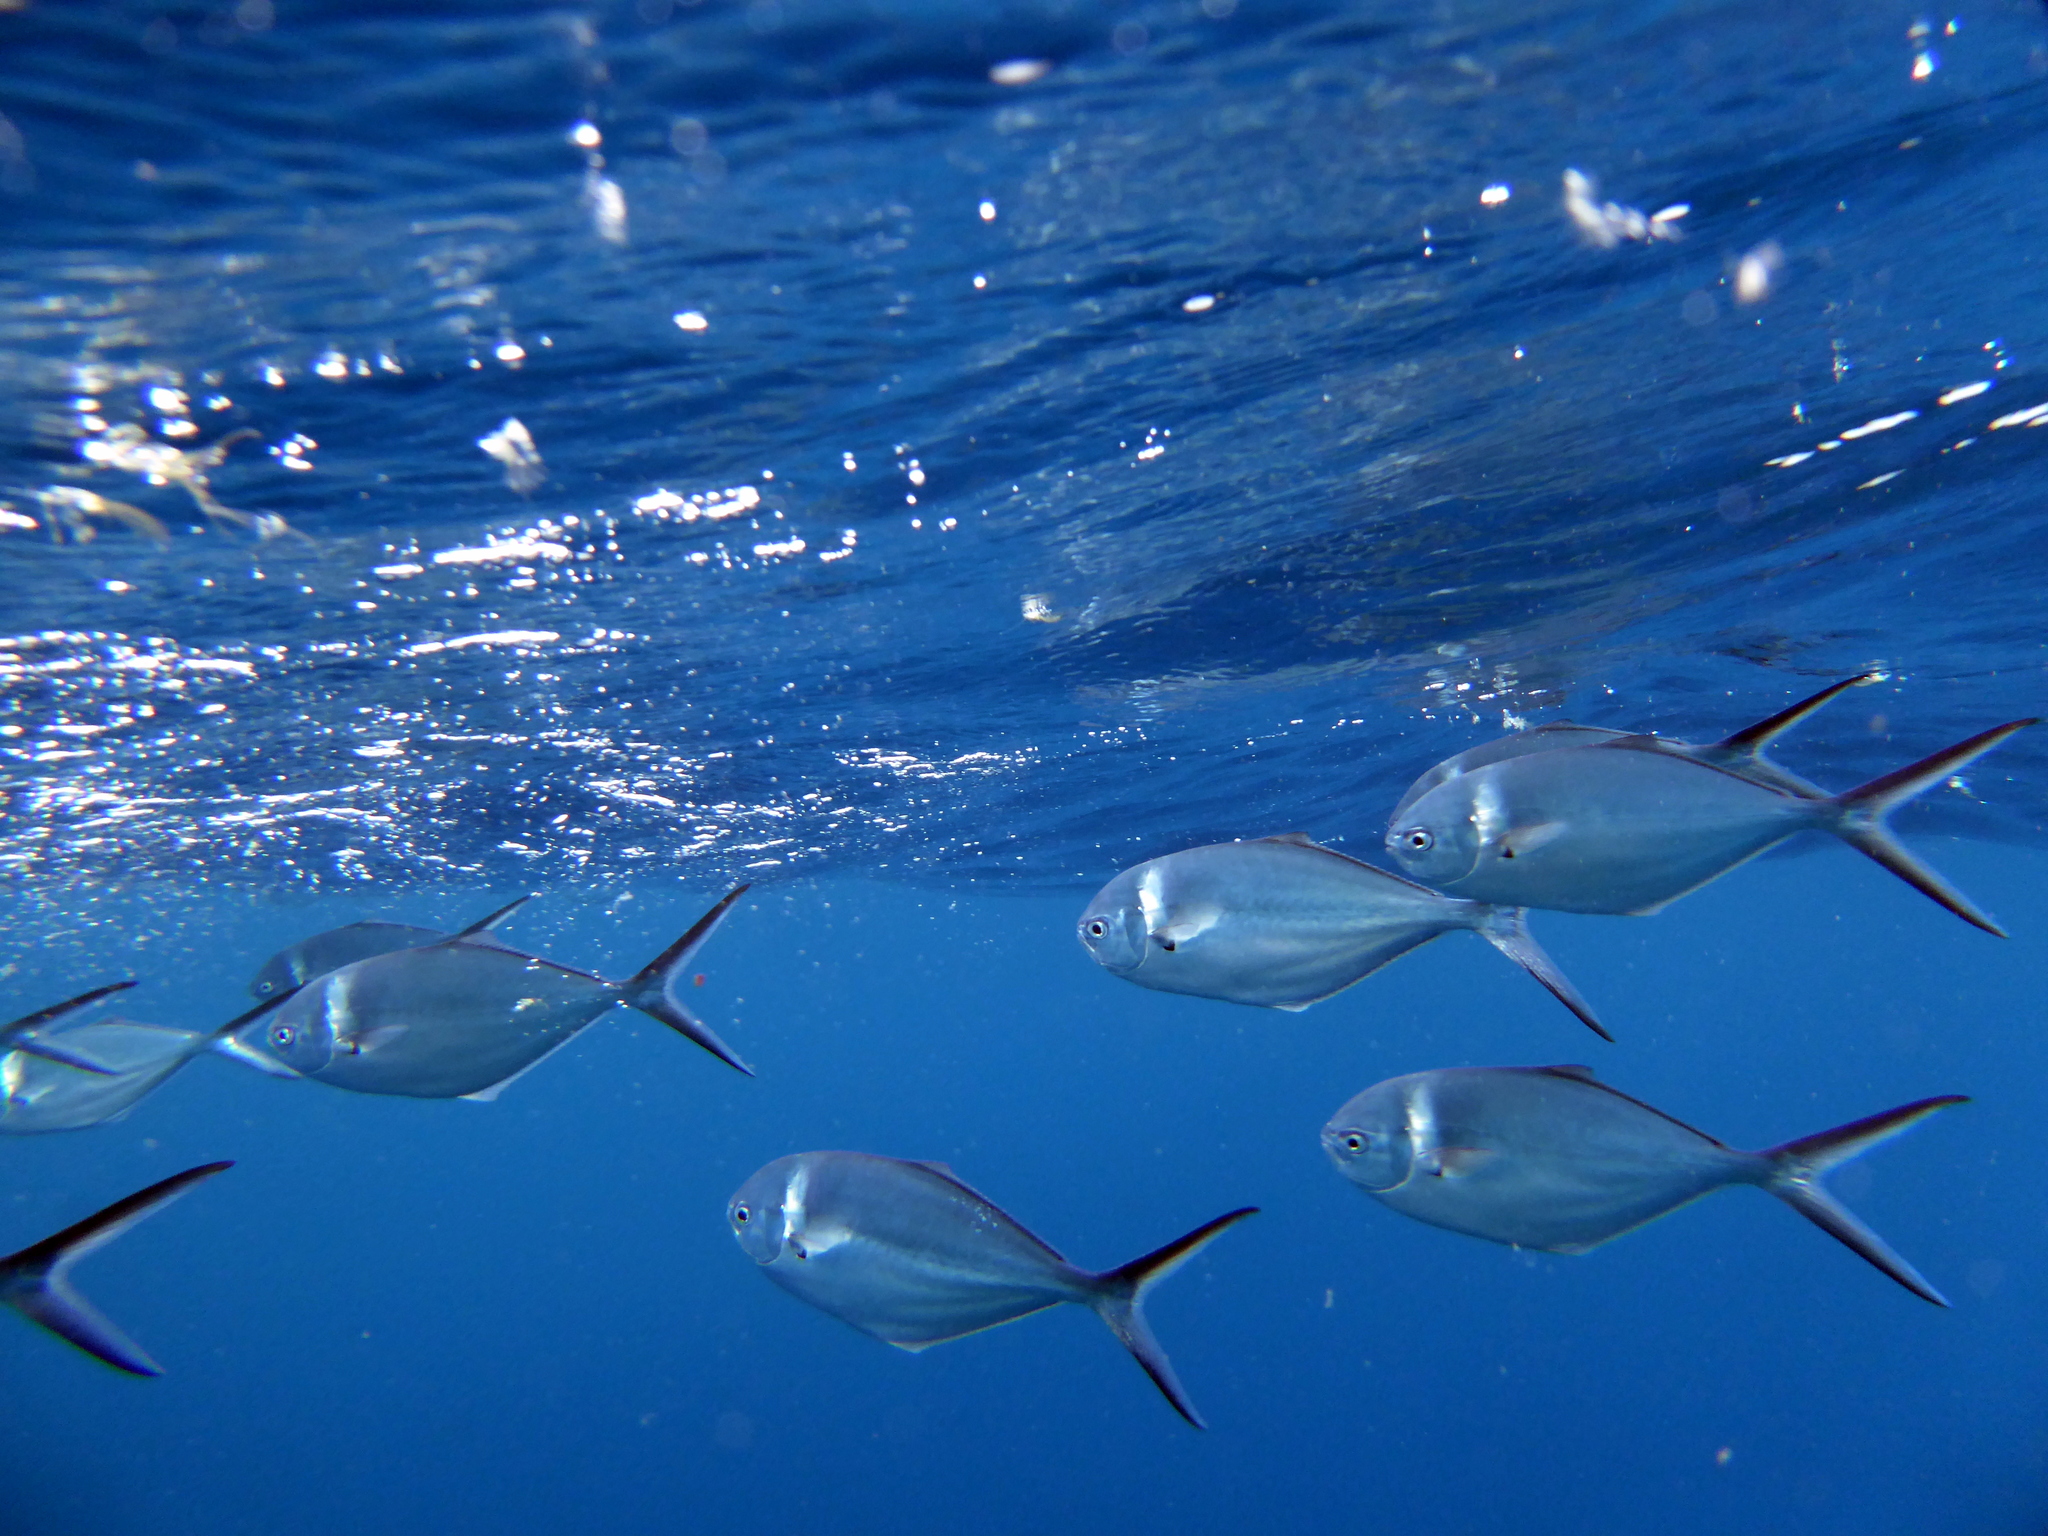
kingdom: Animalia
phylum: Chordata
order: Perciformes
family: Carangidae
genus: Trachinotus
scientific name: Trachinotus stilbe
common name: Steel pompano
